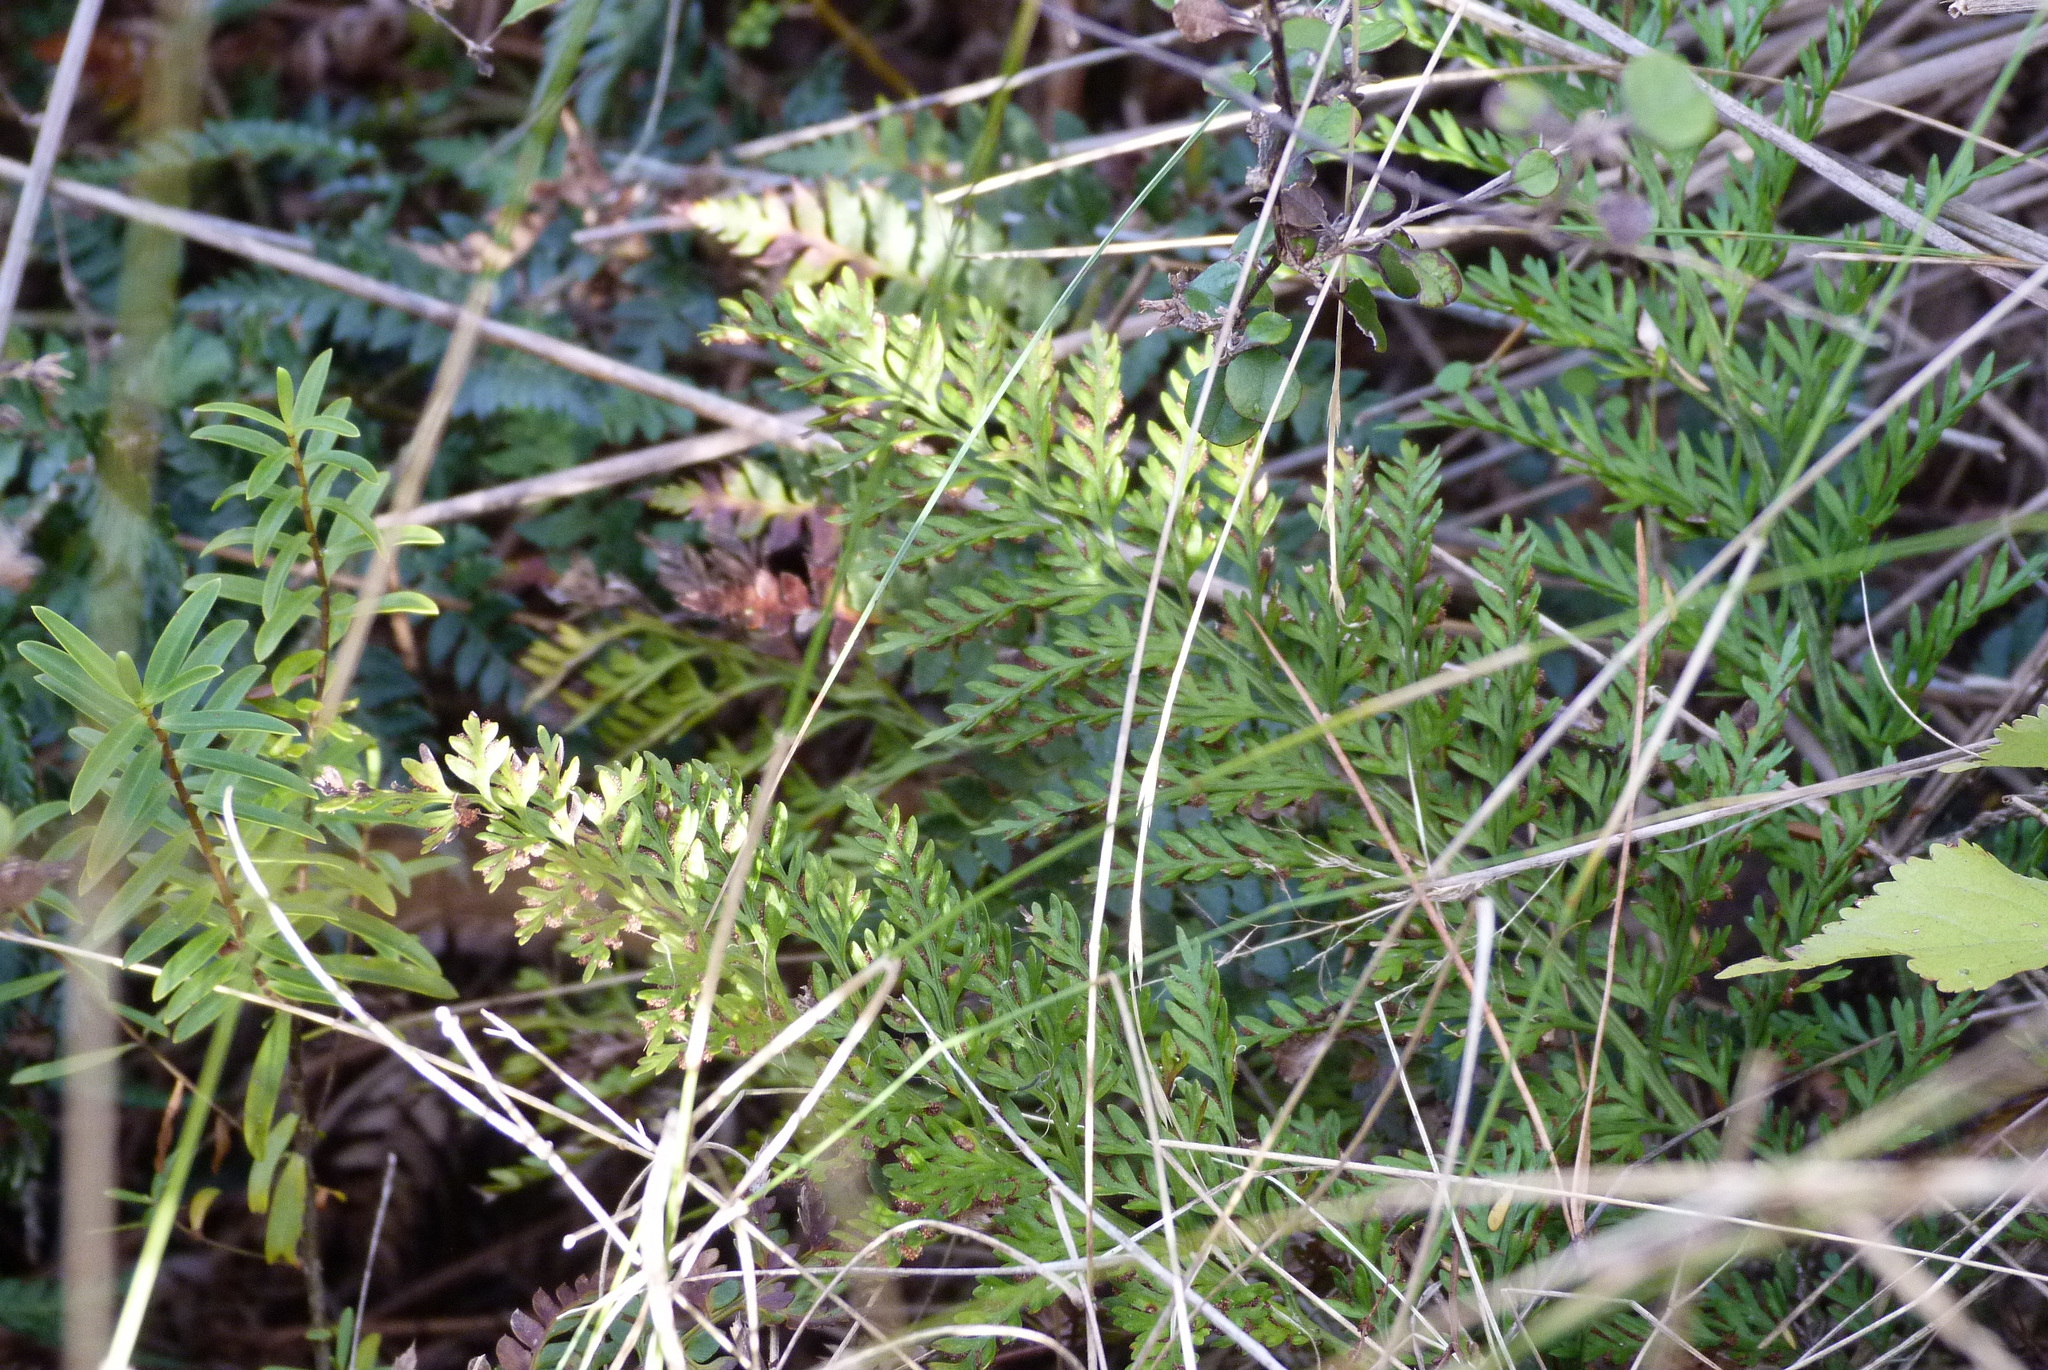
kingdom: Plantae
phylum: Tracheophyta
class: Polypodiopsida
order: Polypodiales
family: Aspleniaceae
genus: Asplenium
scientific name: Asplenium richardii
